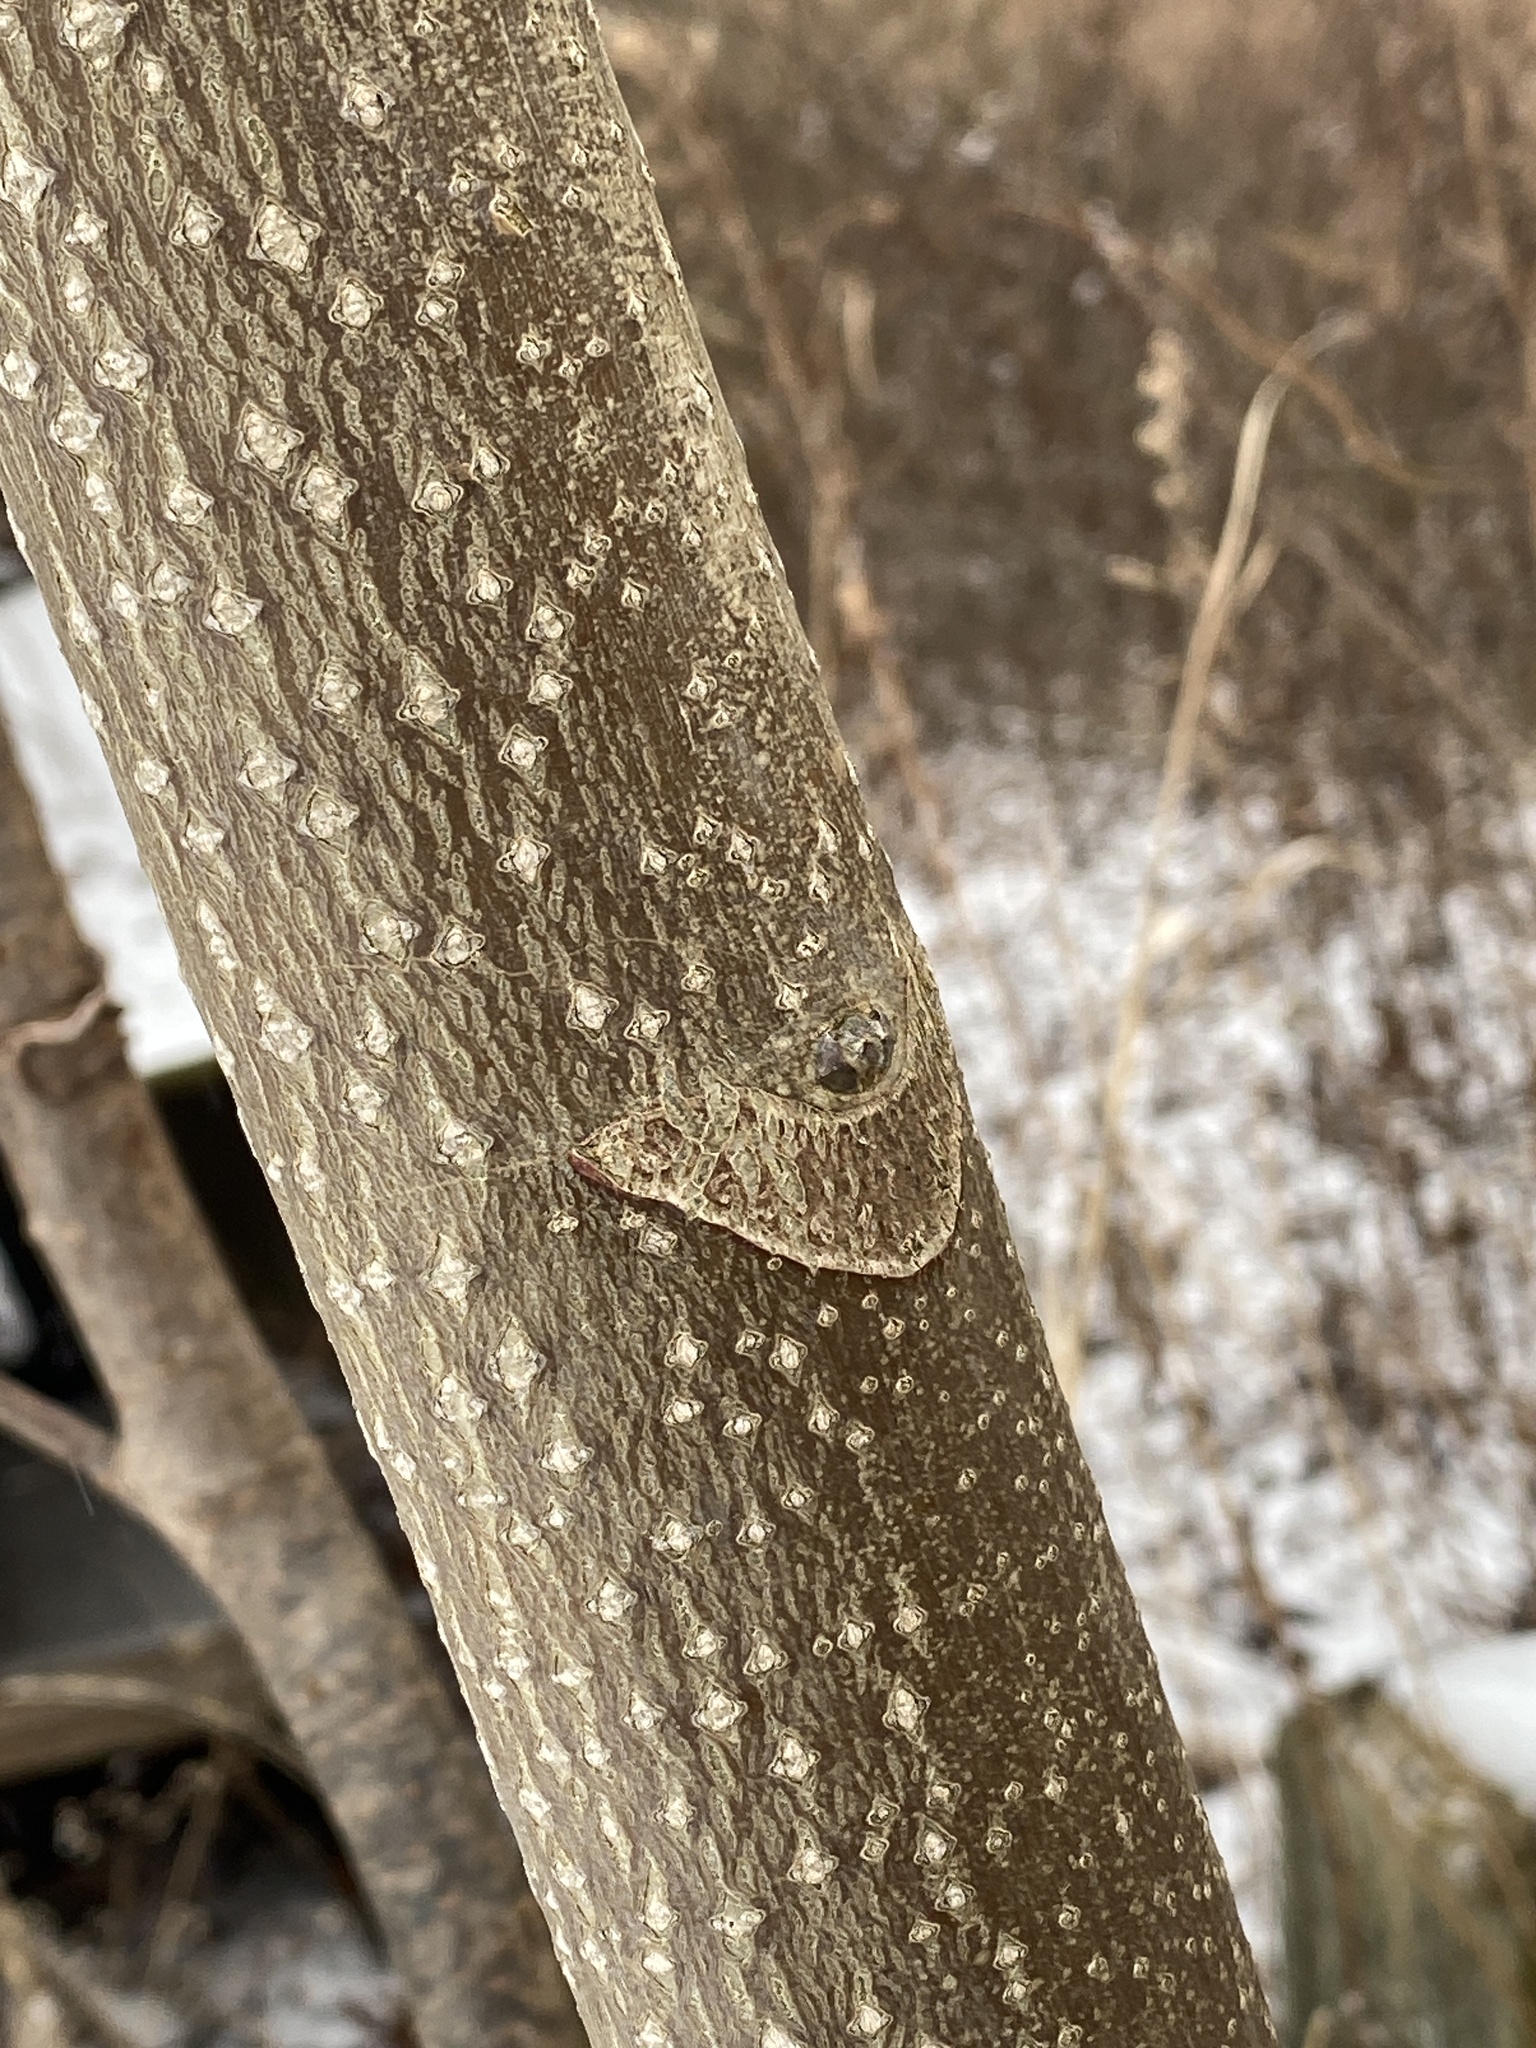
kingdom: Plantae
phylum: Tracheophyta
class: Magnoliopsida
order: Sapindales
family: Simaroubaceae
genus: Ailanthus
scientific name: Ailanthus altissima
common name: Tree-of-heaven
